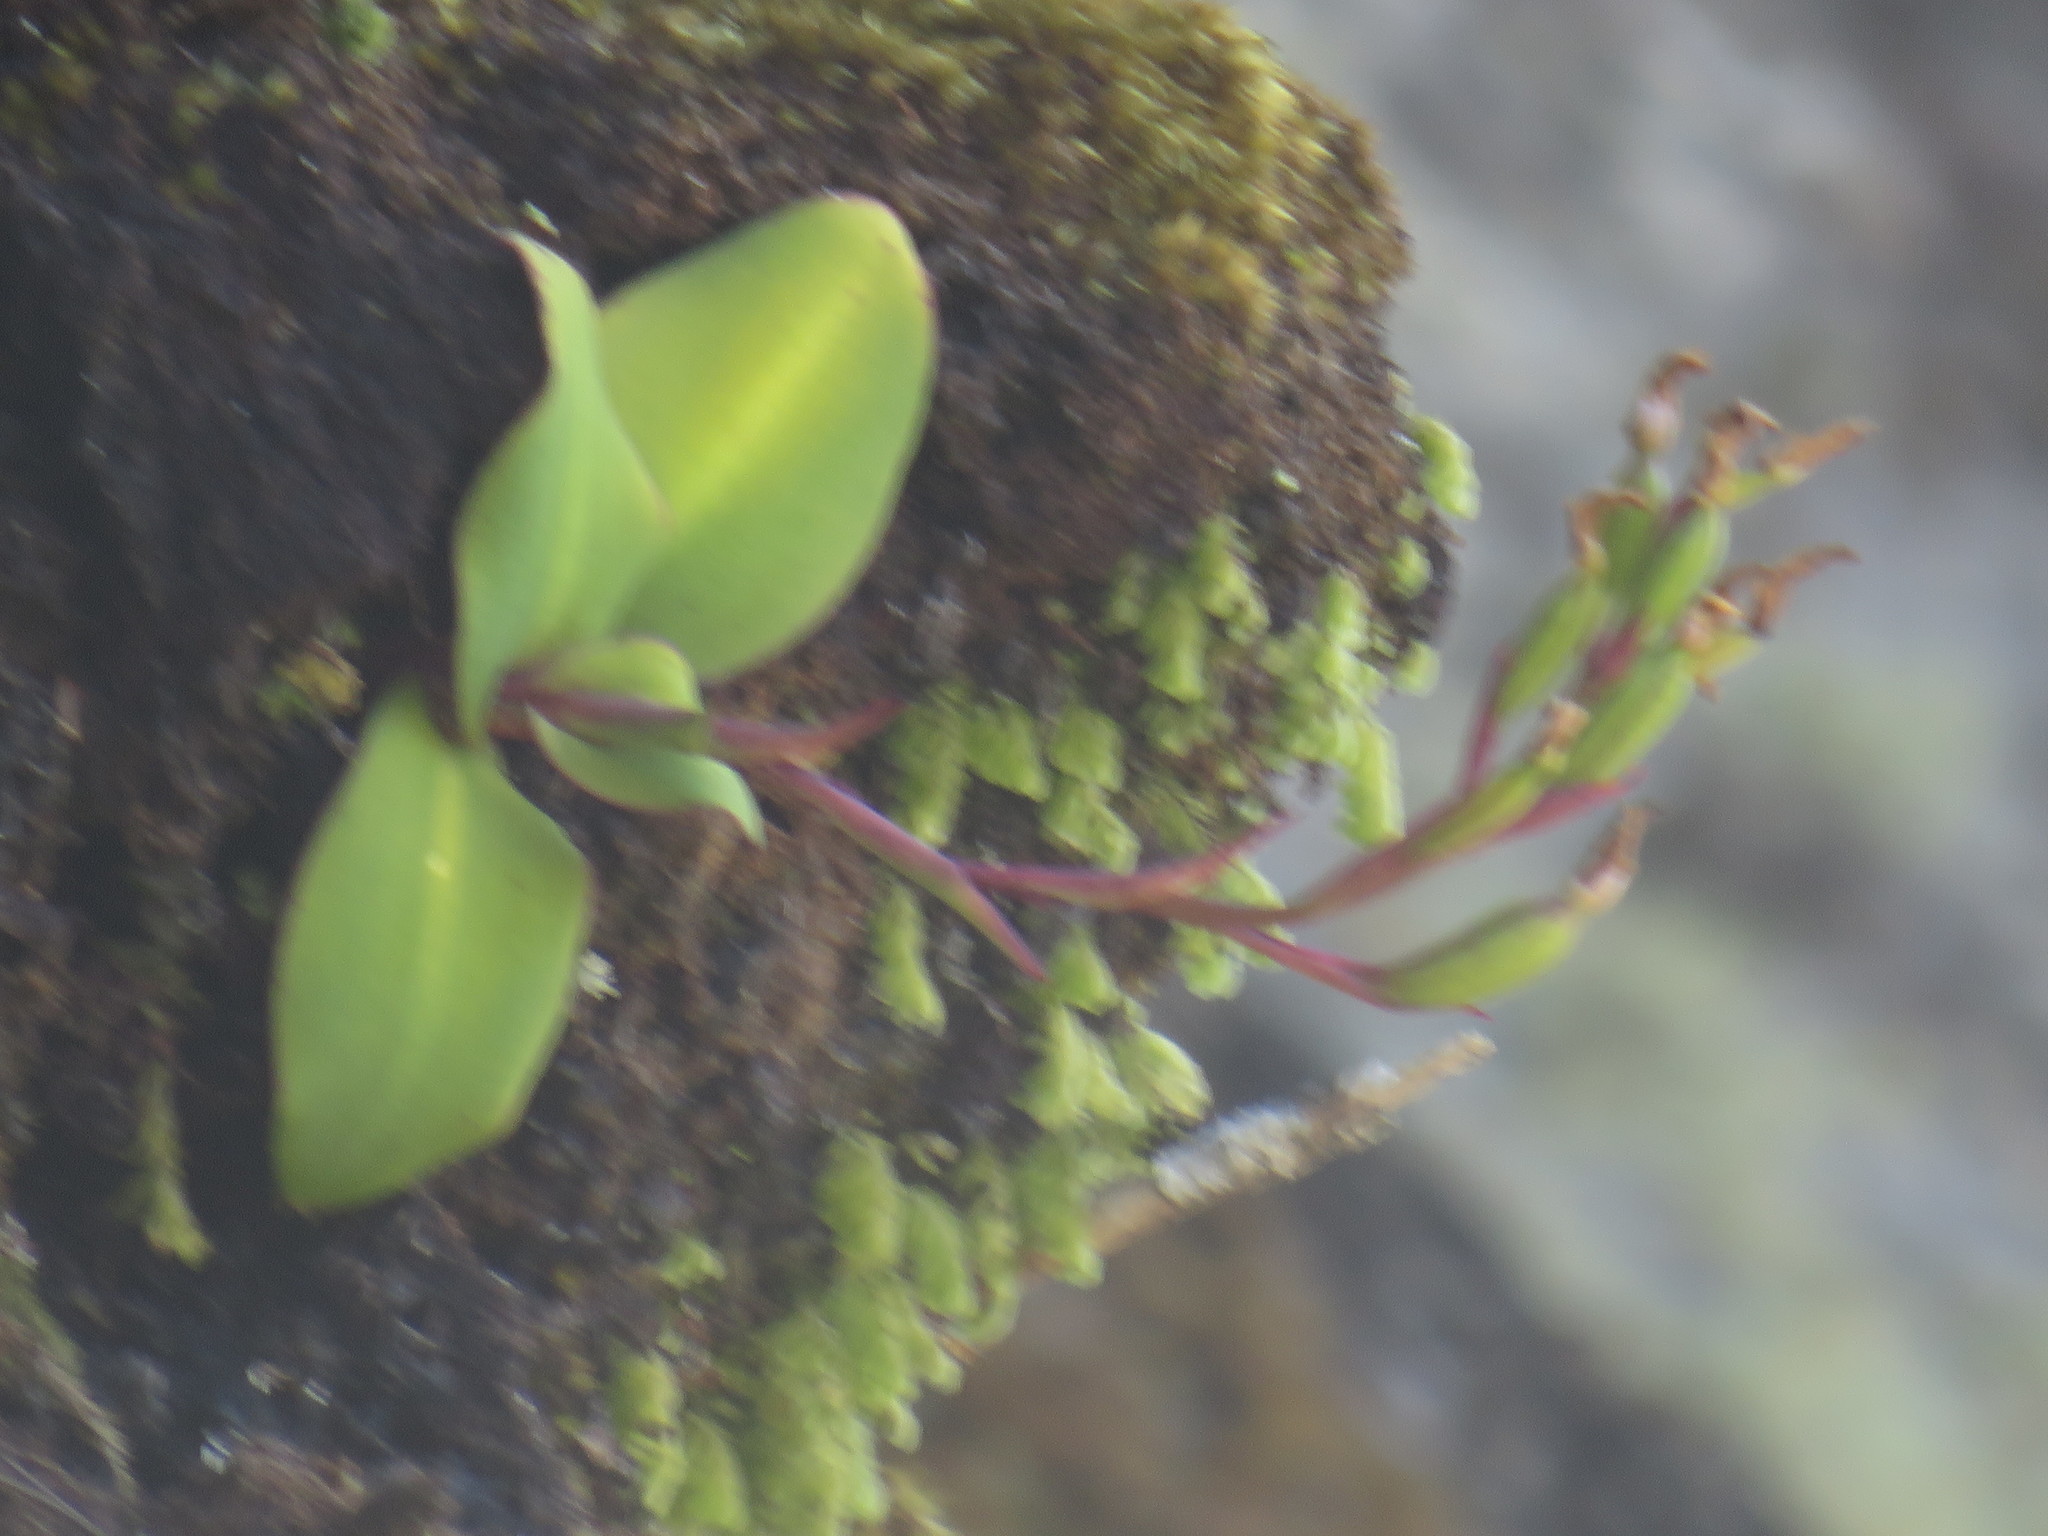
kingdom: Plantae
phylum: Tracheophyta
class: Liliopsida
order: Asparagales
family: Orchidaceae
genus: Disa
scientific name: Disa rosea
